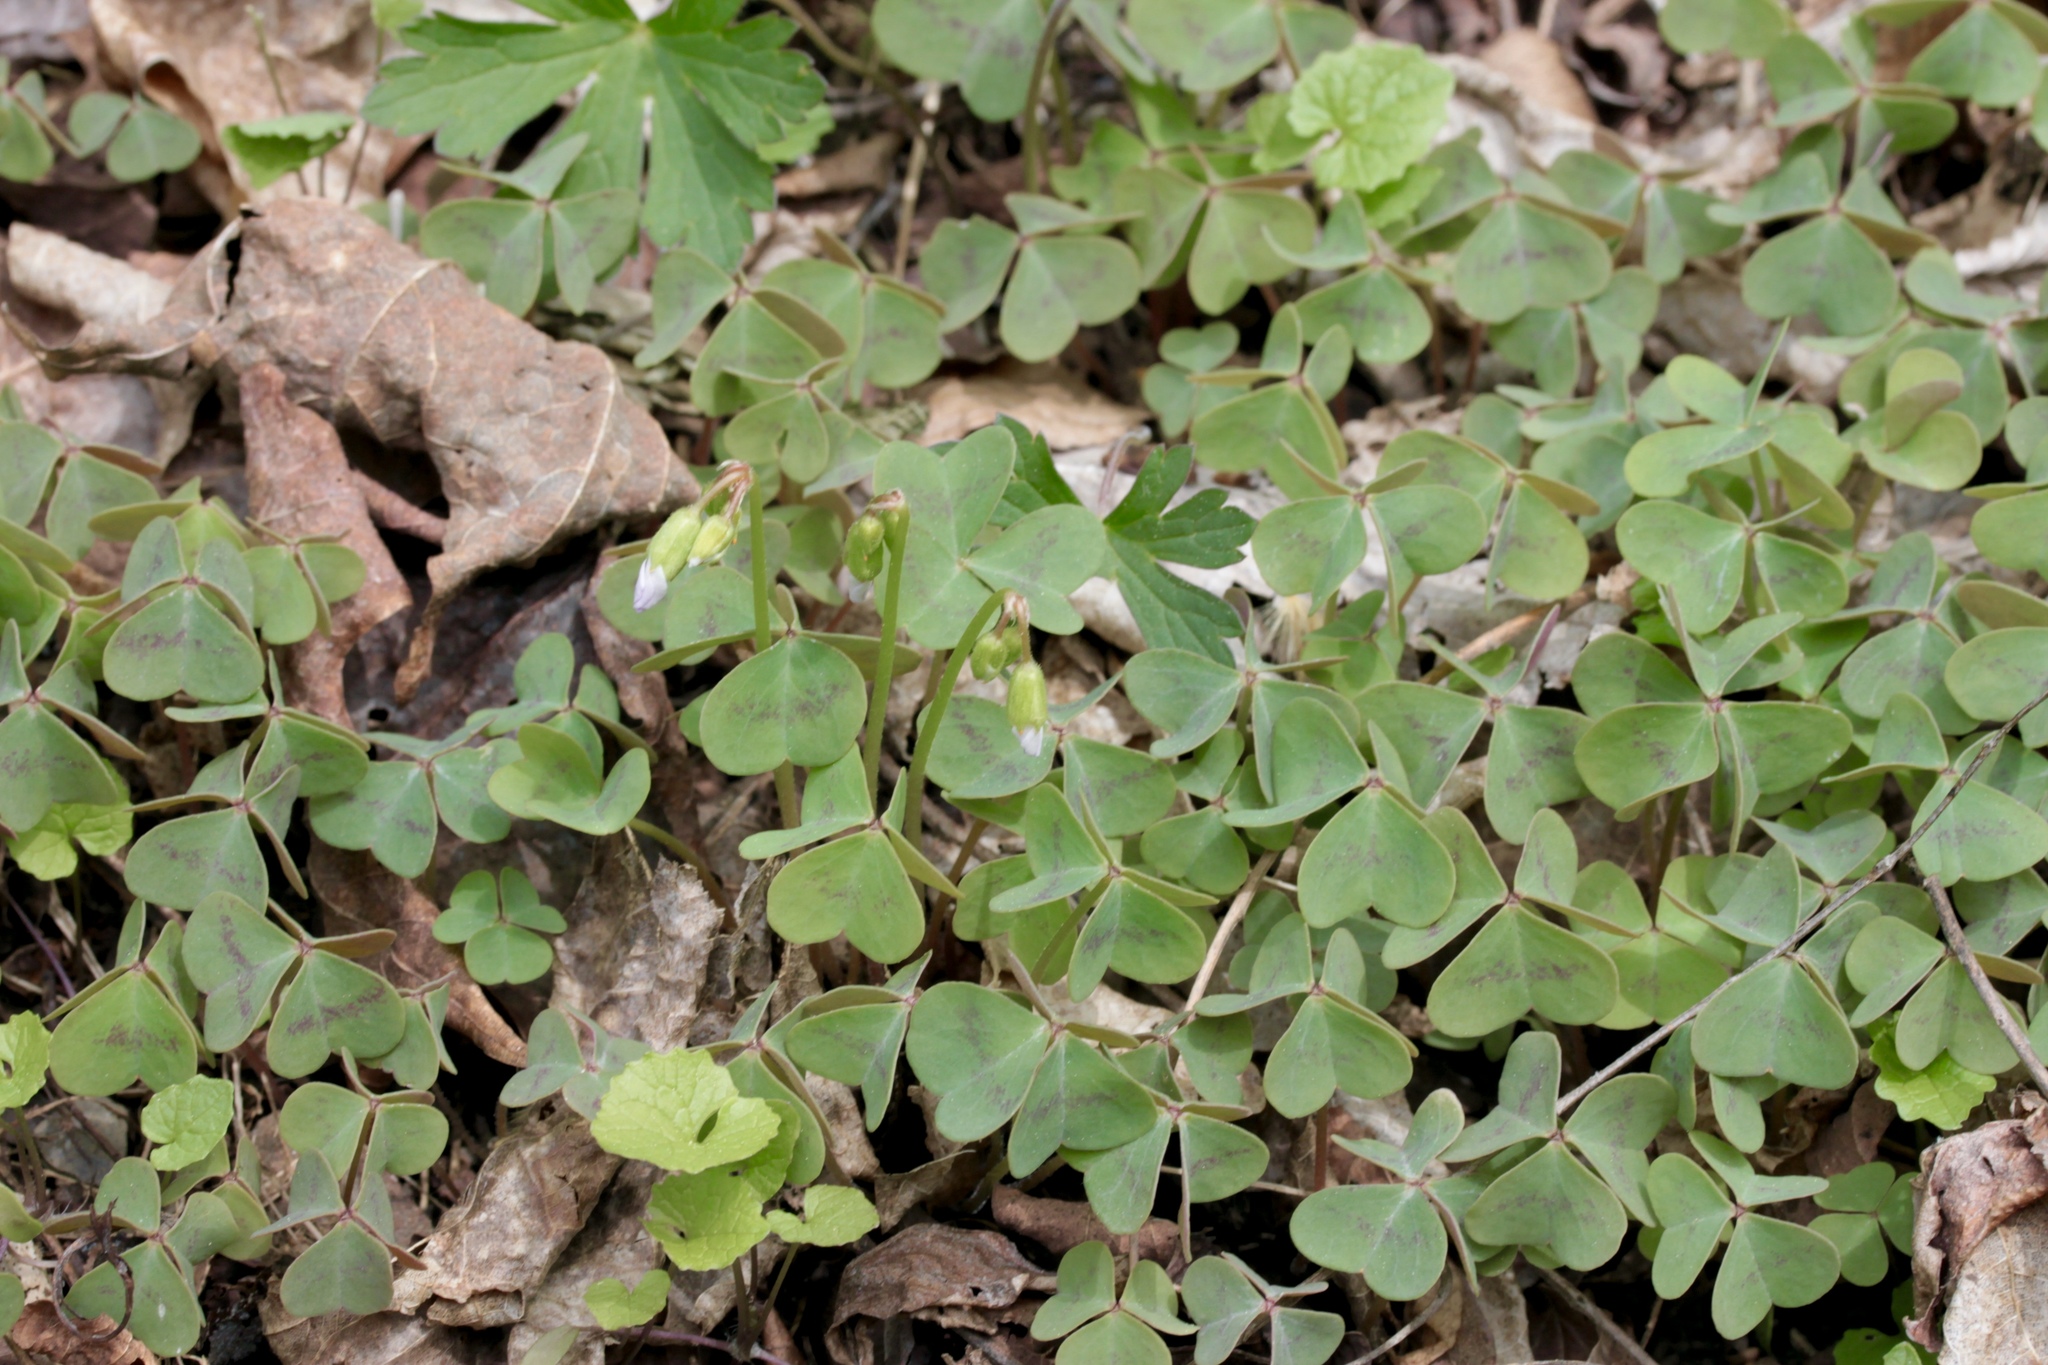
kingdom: Plantae
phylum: Tracheophyta
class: Magnoliopsida
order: Oxalidales
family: Oxalidaceae
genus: Oxalis
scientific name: Oxalis violacea
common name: Violet wood-sorrel
